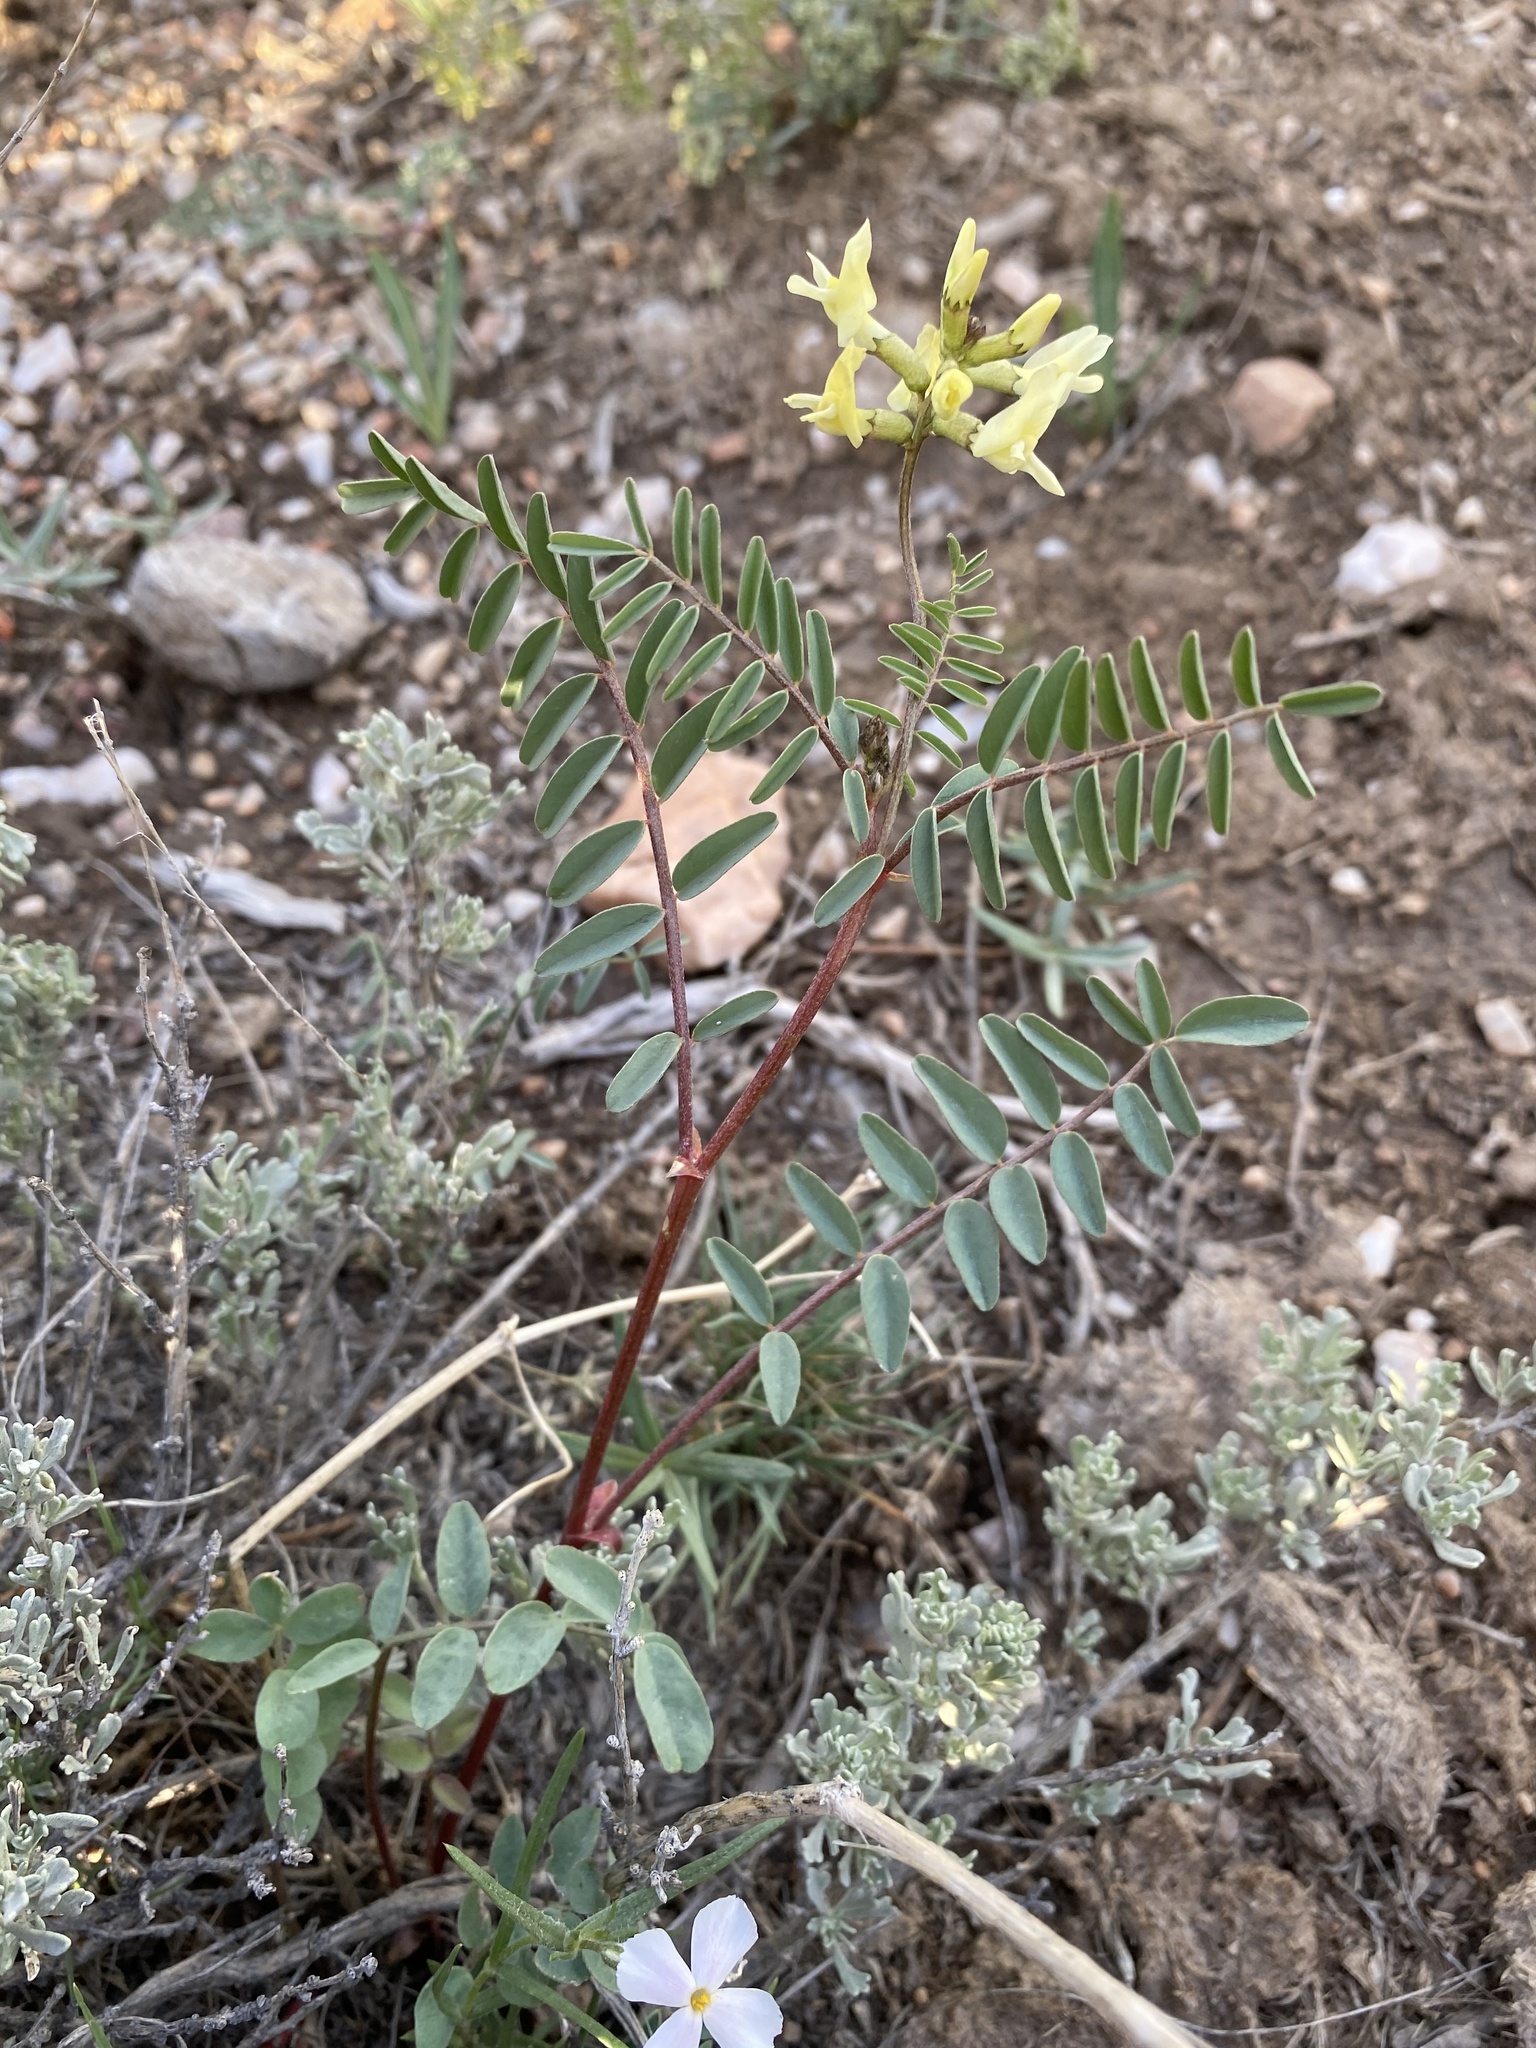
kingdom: Plantae
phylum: Tracheophyta
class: Magnoliopsida
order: Fabales
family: Fabaceae
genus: Astragalus
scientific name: Astragalus eremiticus
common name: Hermit milk-vetch
